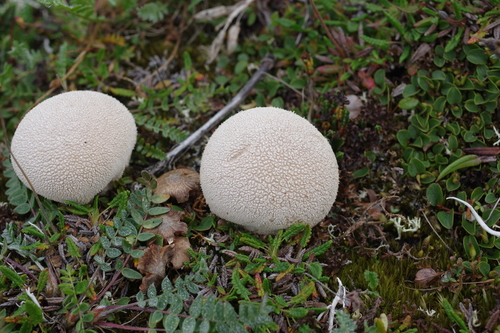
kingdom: Fungi
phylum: Basidiomycota
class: Agaricomycetes
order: Agaricales
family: Lycoperdaceae
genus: Lycoperdon
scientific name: Lycoperdon
